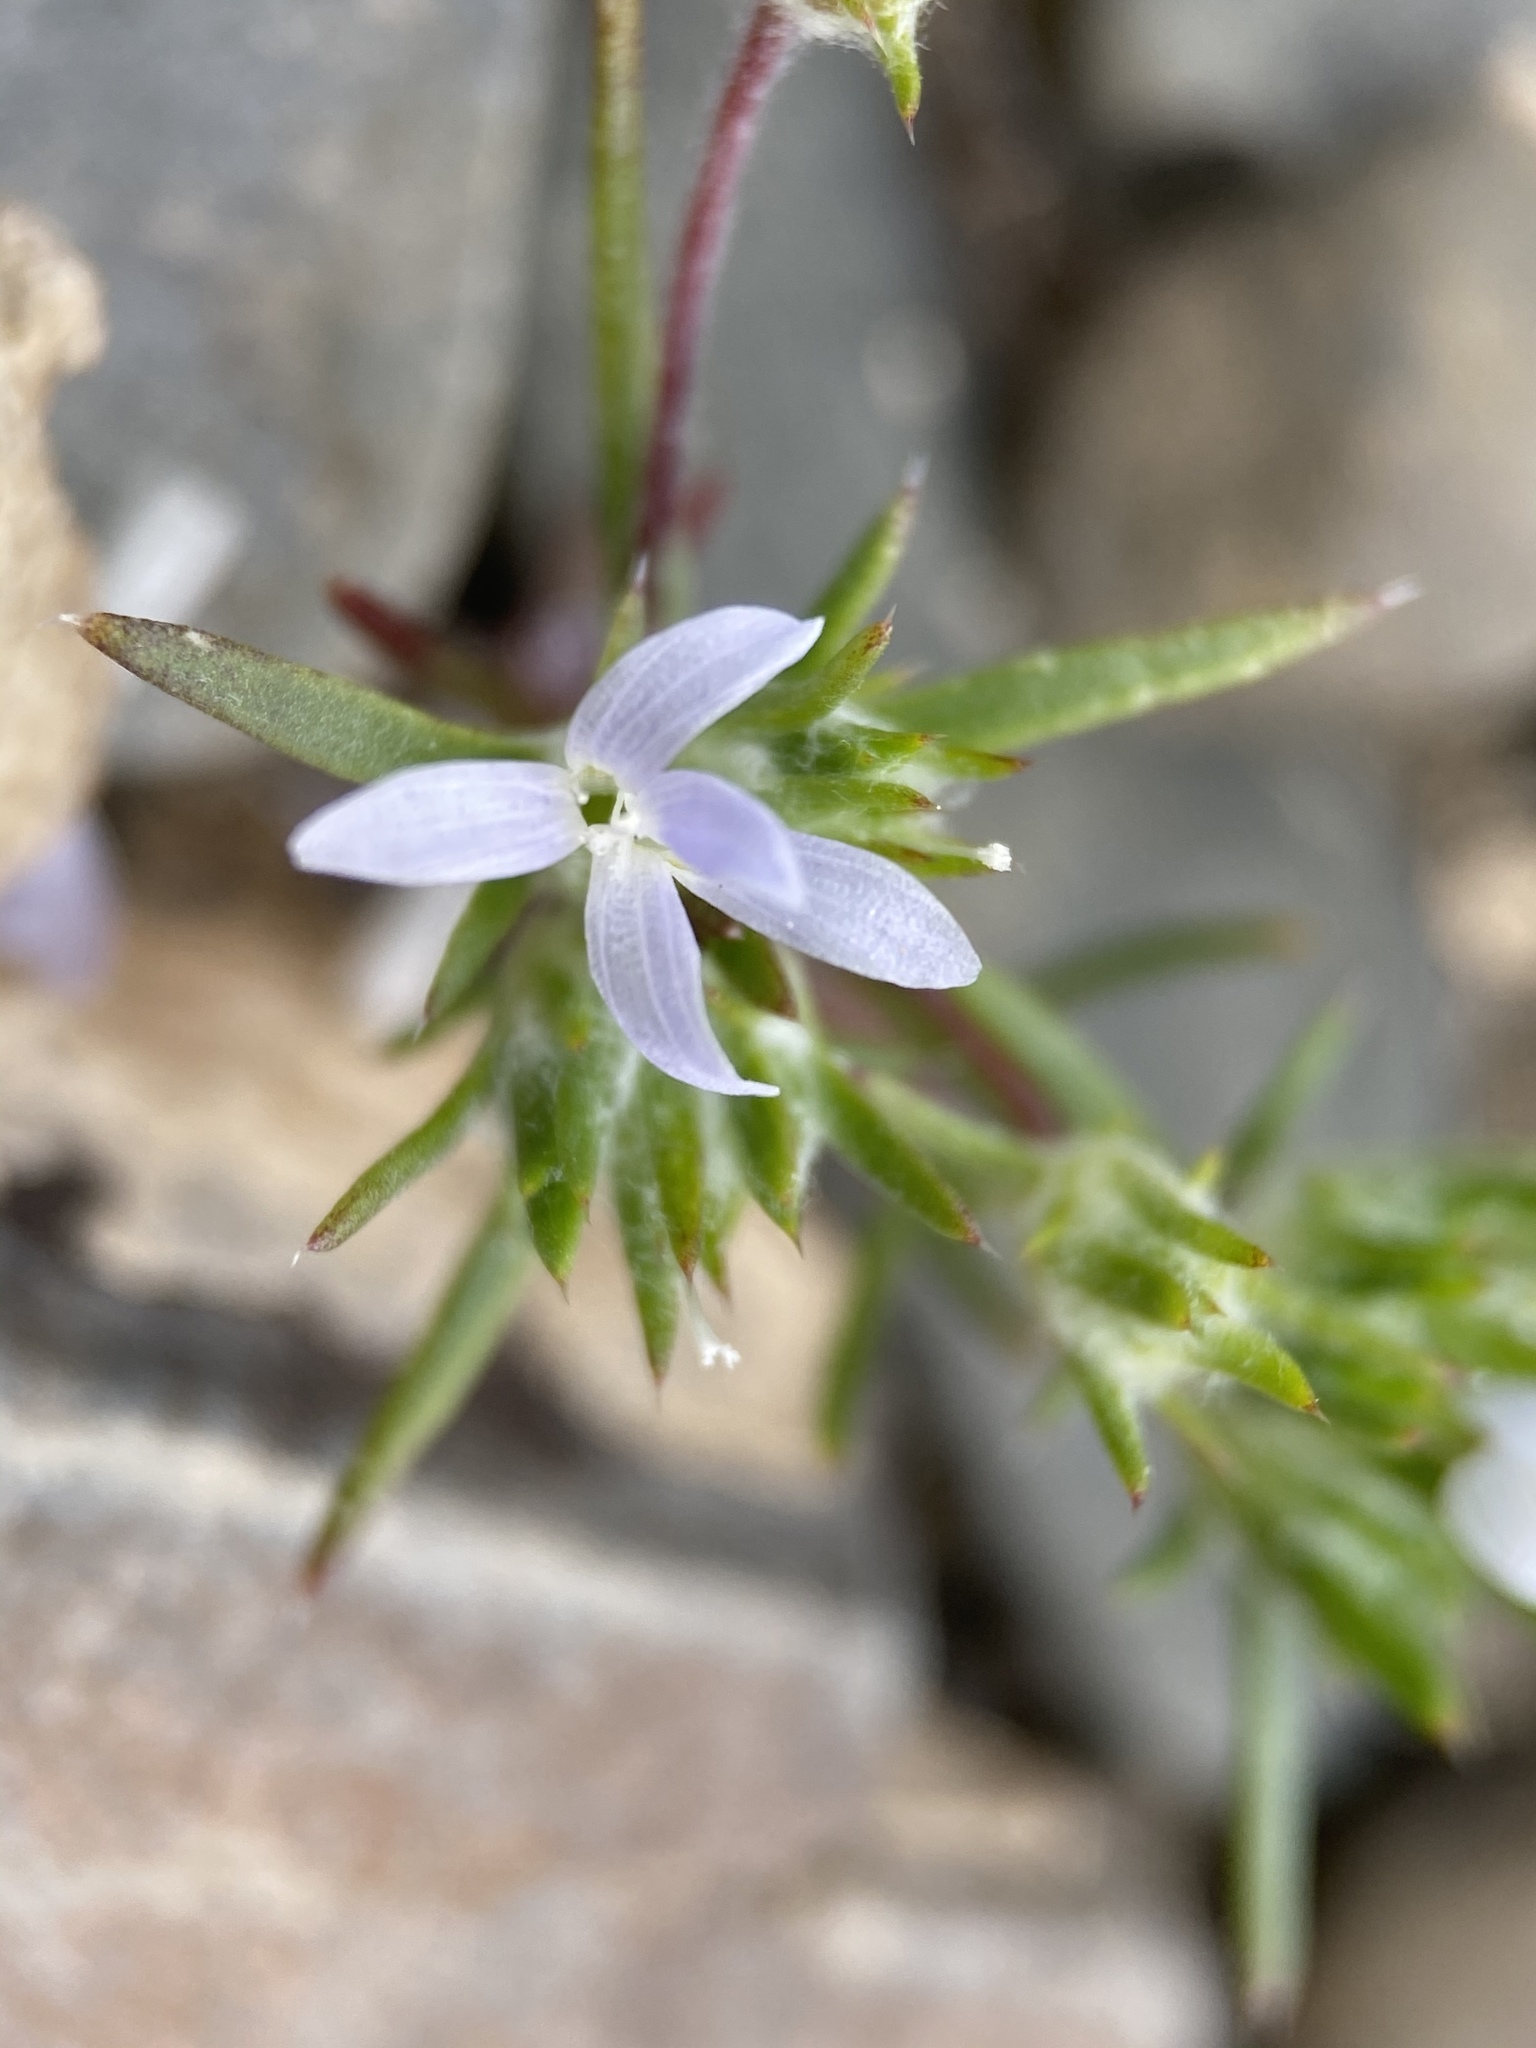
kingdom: Plantae
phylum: Tracheophyta
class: Magnoliopsida
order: Ericales
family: Polemoniaceae
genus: Eriastrum
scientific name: Eriastrum diffusum
